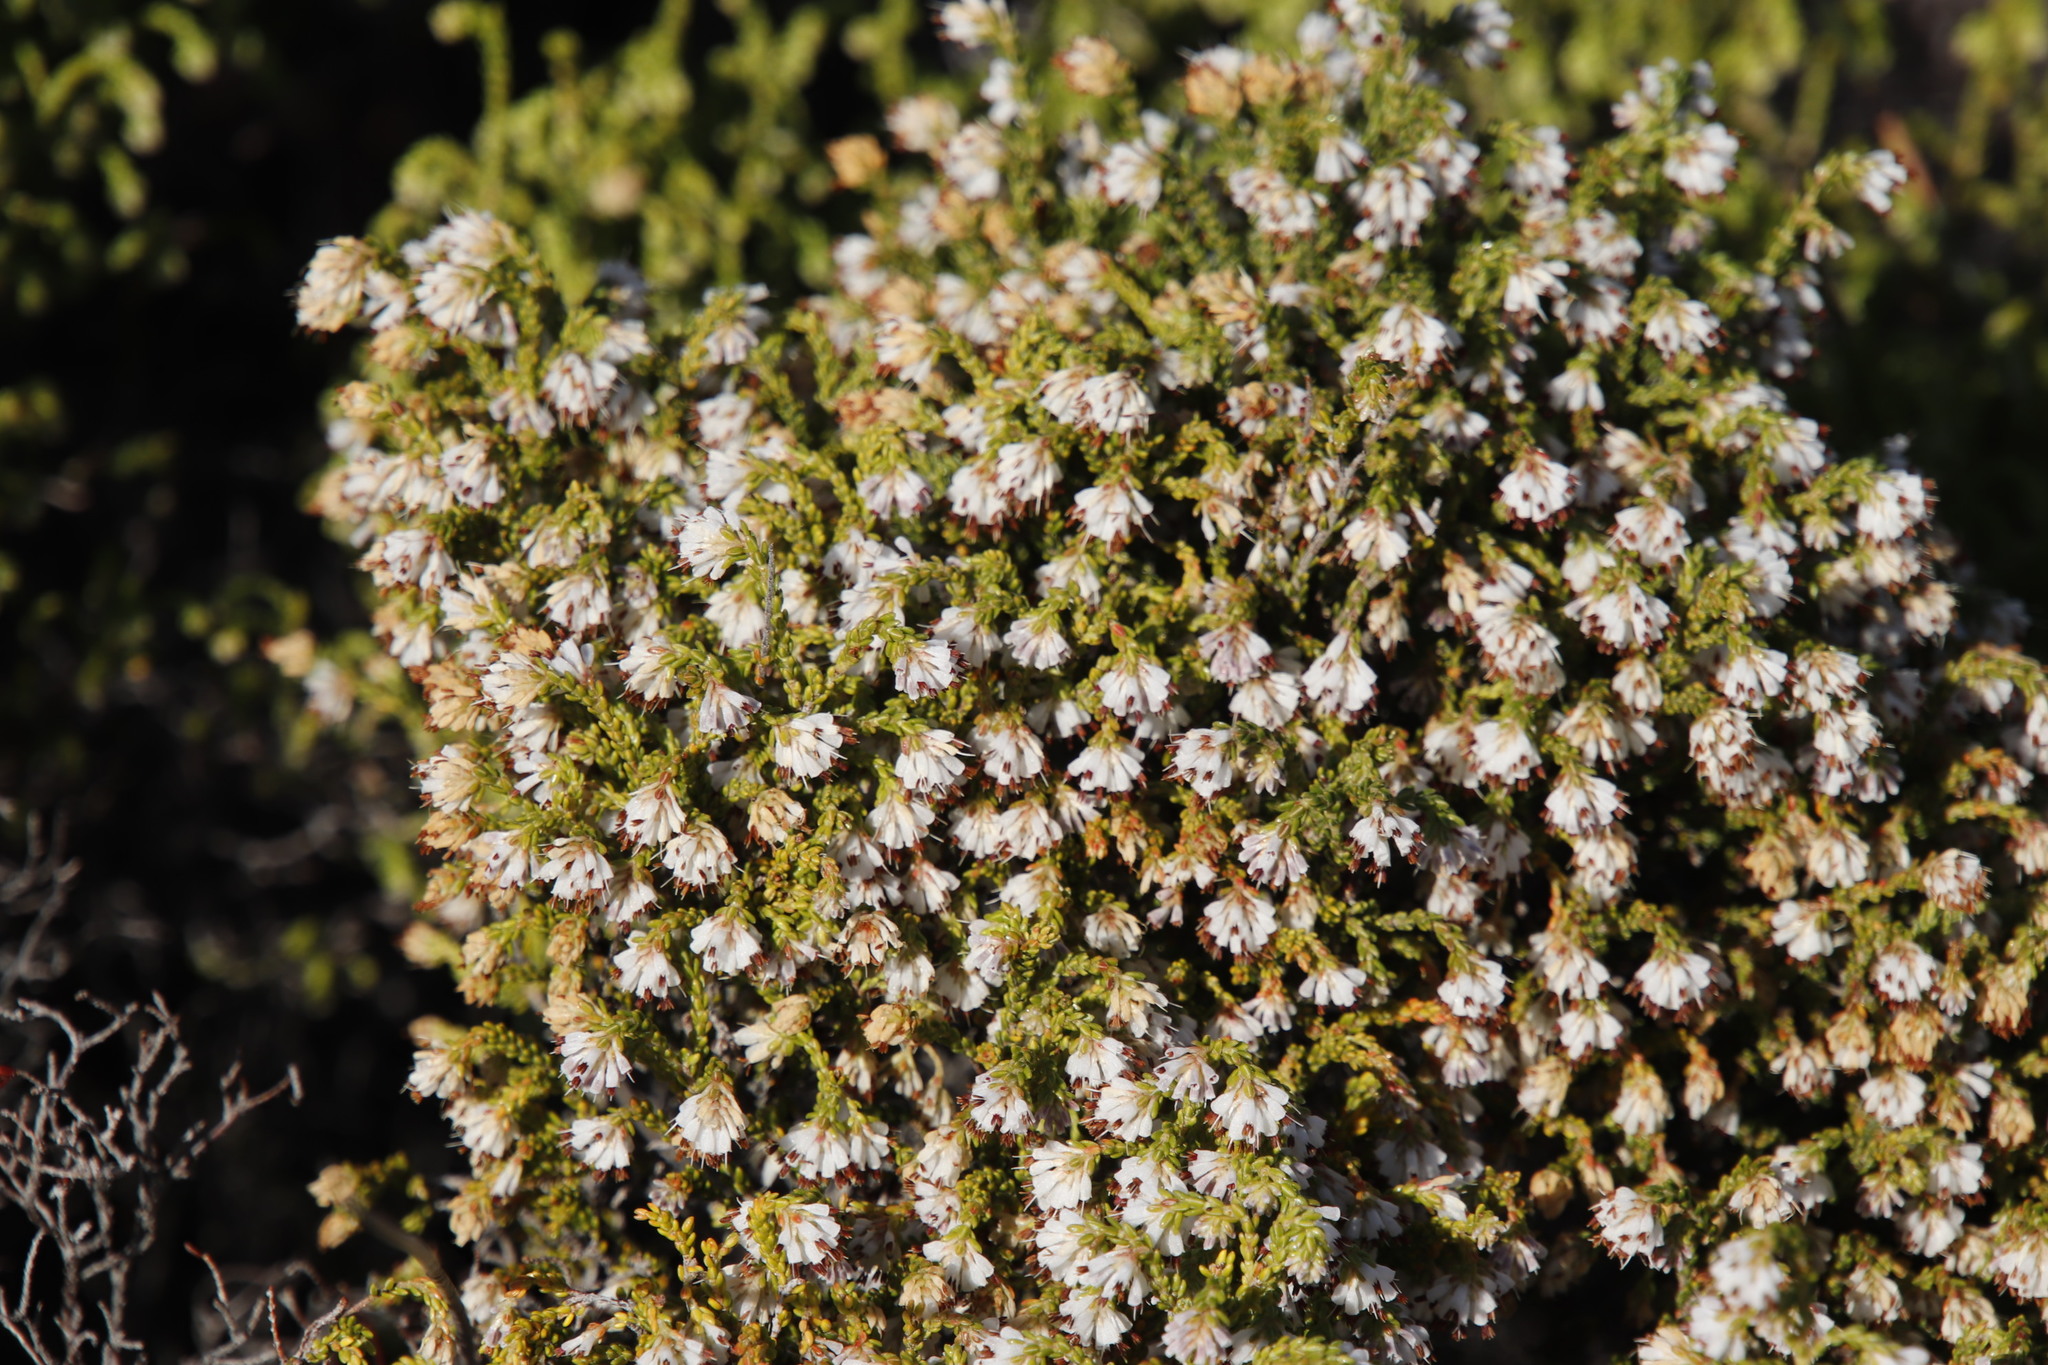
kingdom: Plantae
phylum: Tracheophyta
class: Magnoliopsida
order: Ericales
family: Ericaceae
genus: Erica
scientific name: Erica labialis
